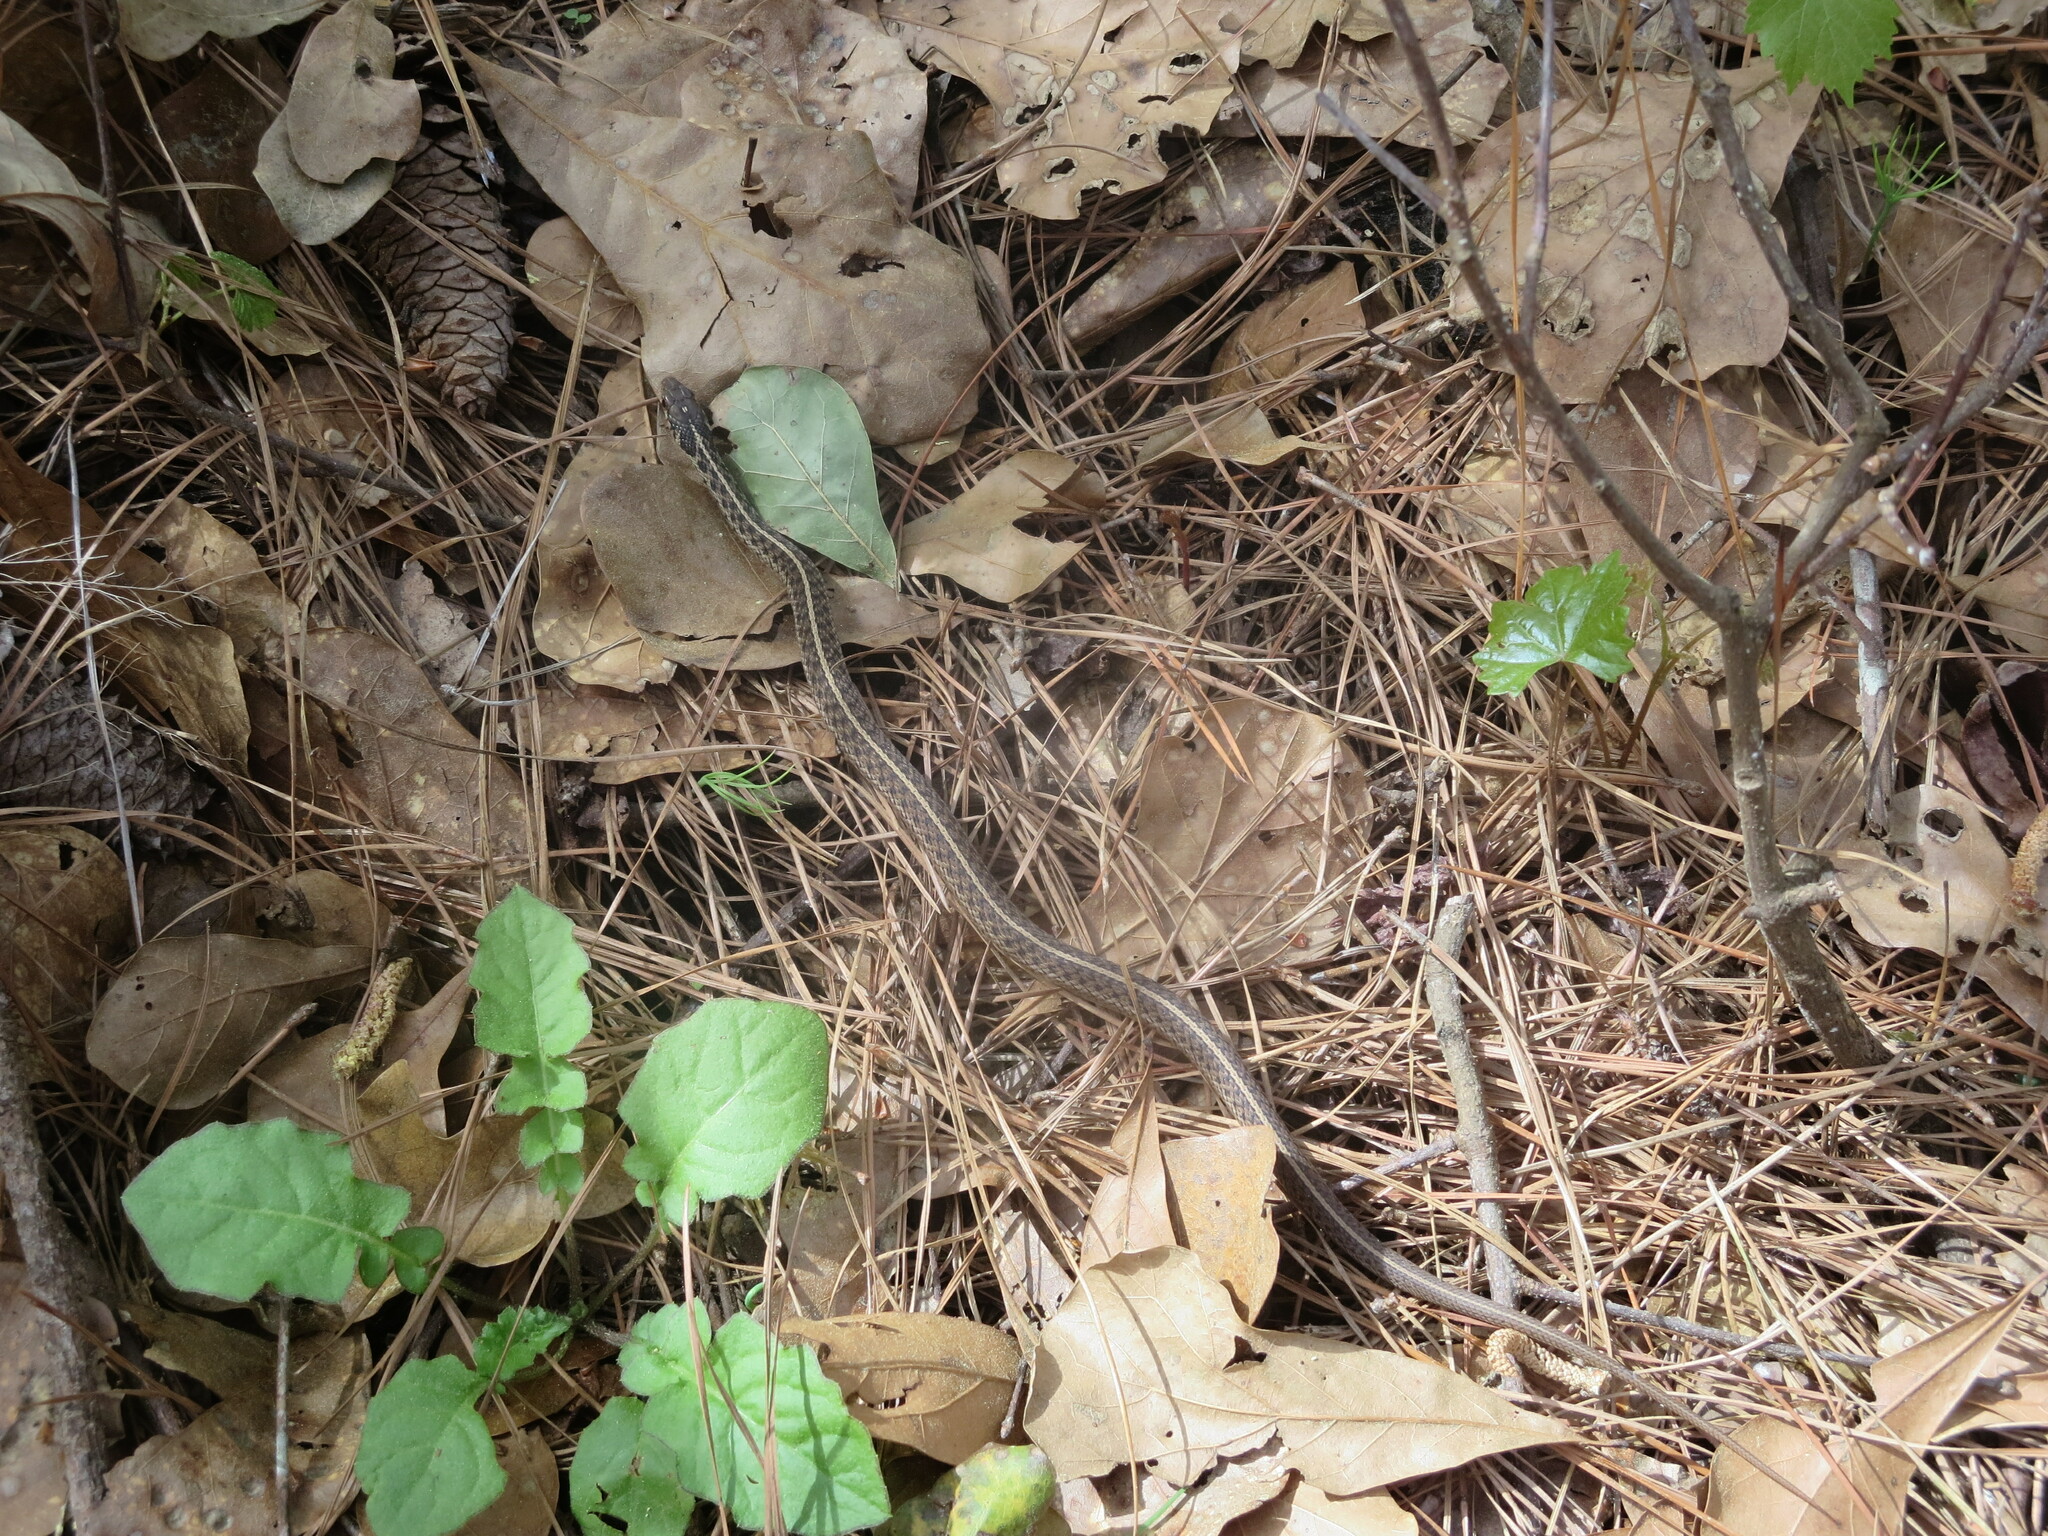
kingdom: Animalia
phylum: Chordata
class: Squamata
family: Colubridae
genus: Thamnophis
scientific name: Thamnophis sirtalis
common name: Common garter snake
